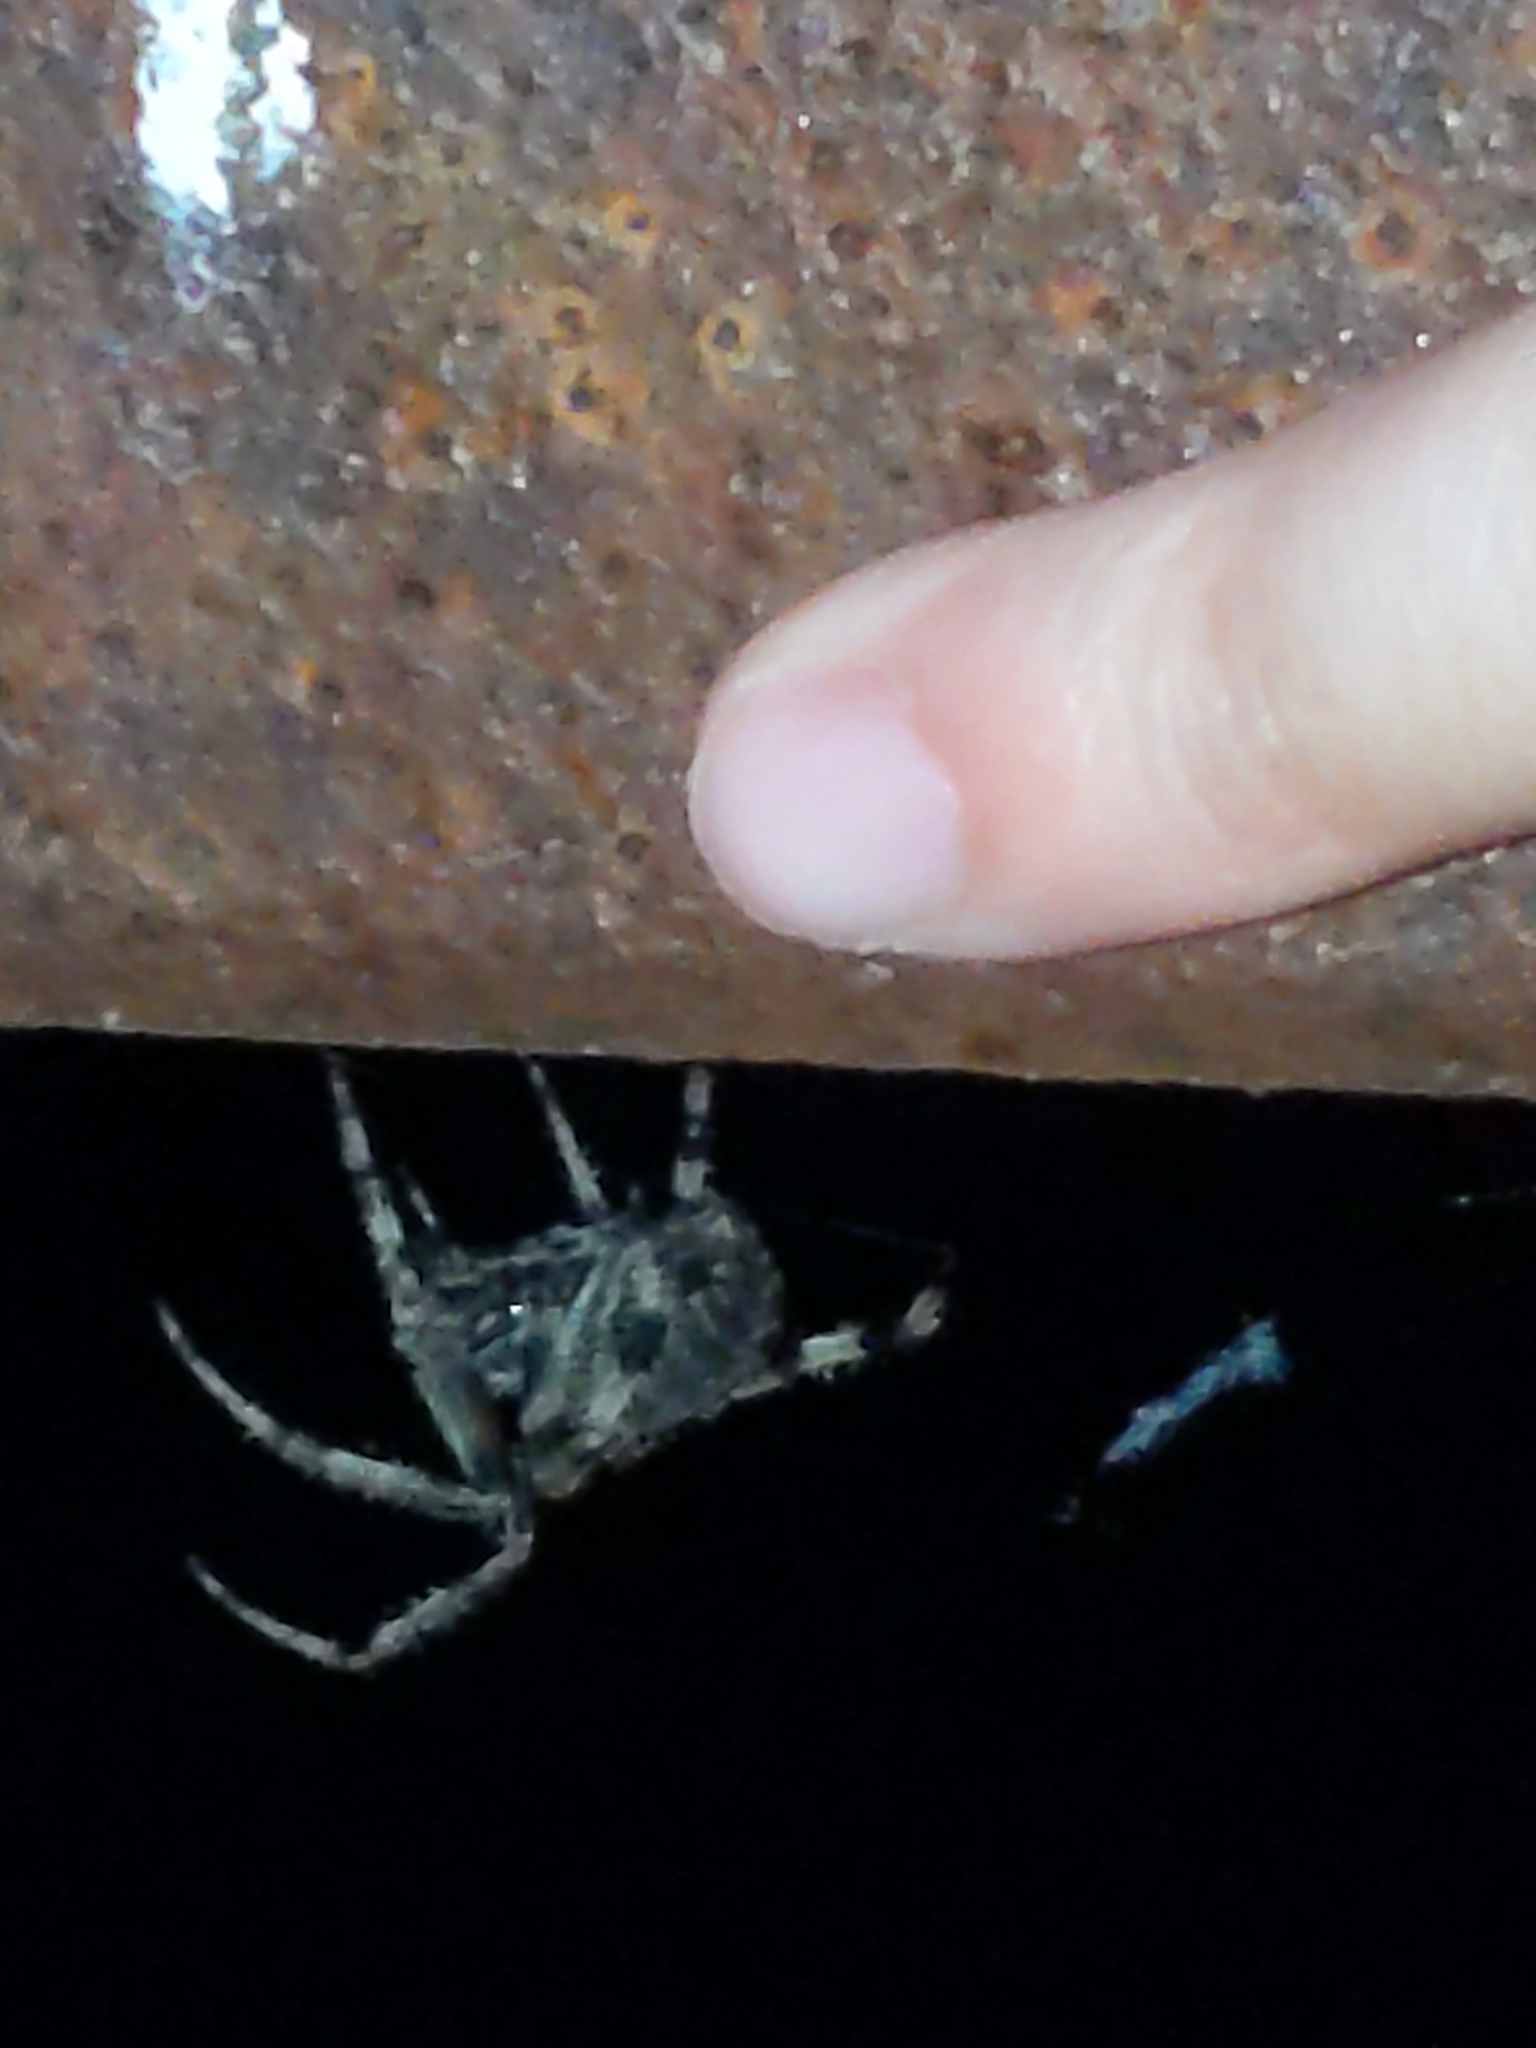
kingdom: Animalia
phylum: Arthropoda
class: Arachnida
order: Araneae
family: Araneidae
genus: Neoscona
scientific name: Neoscona crucifera
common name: Spotted orbweaver
